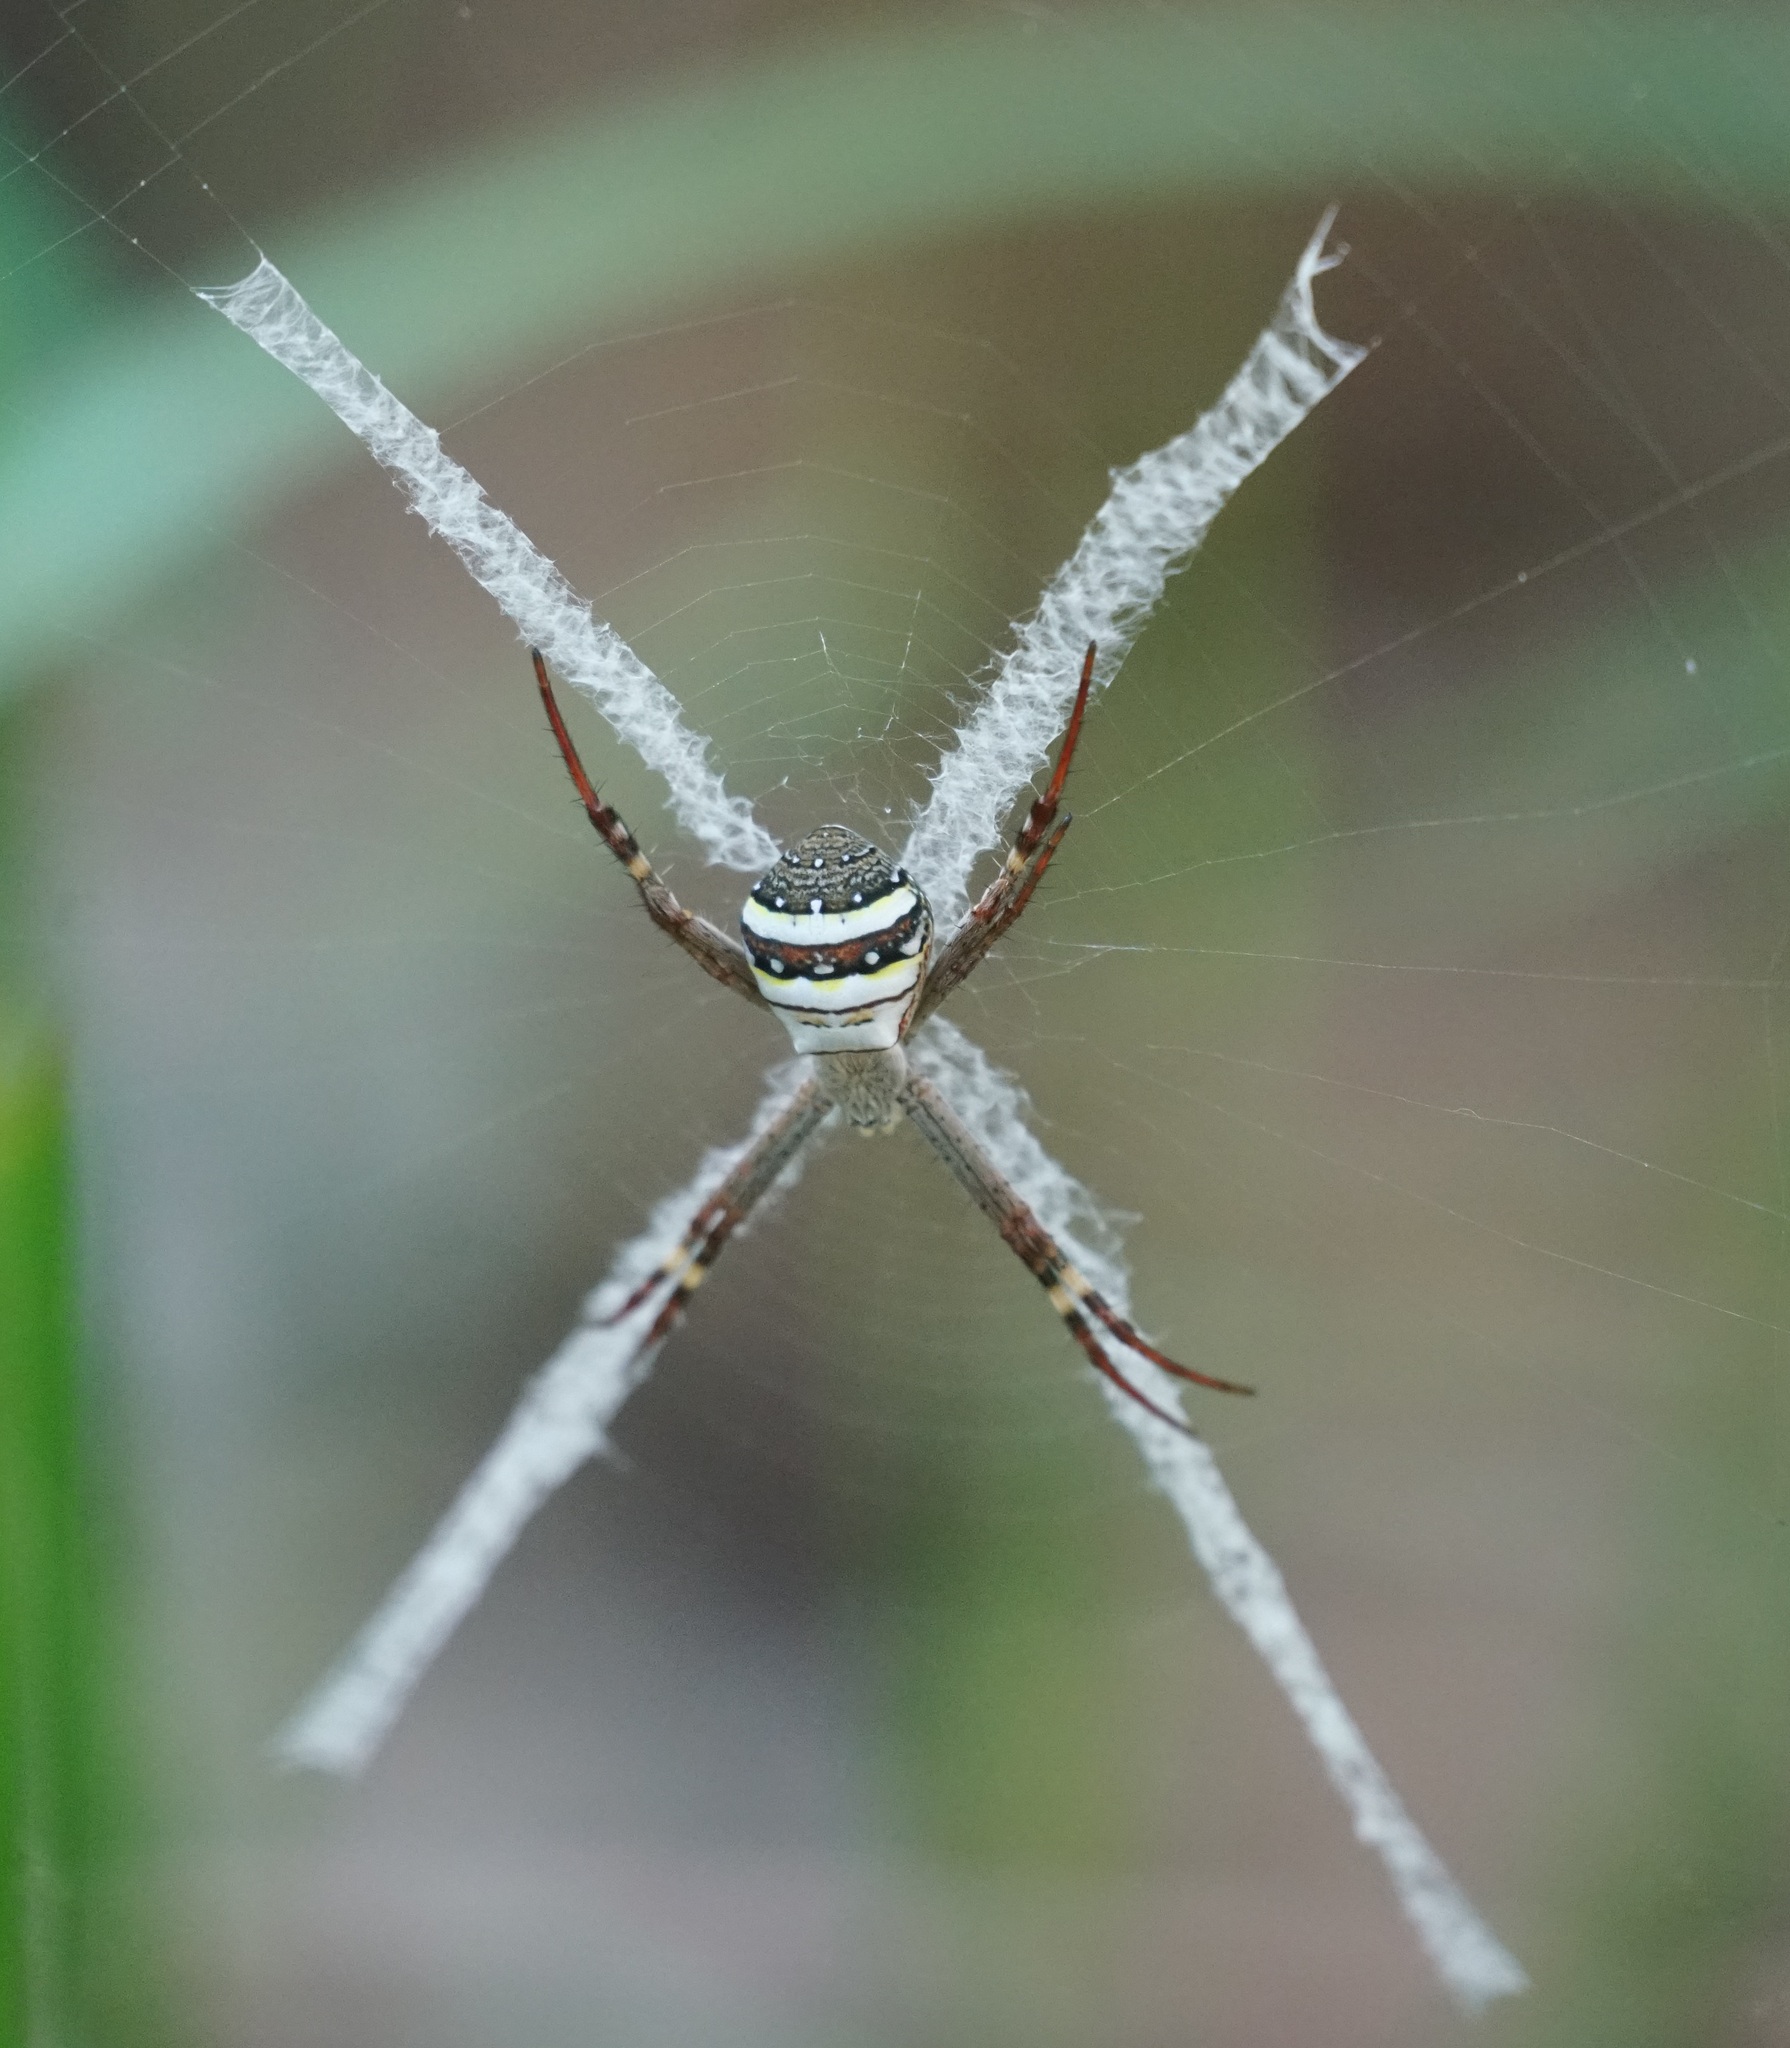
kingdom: Animalia
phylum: Arthropoda
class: Arachnida
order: Araneae
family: Araneidae
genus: Argiope
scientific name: Argiope keyserlingi
